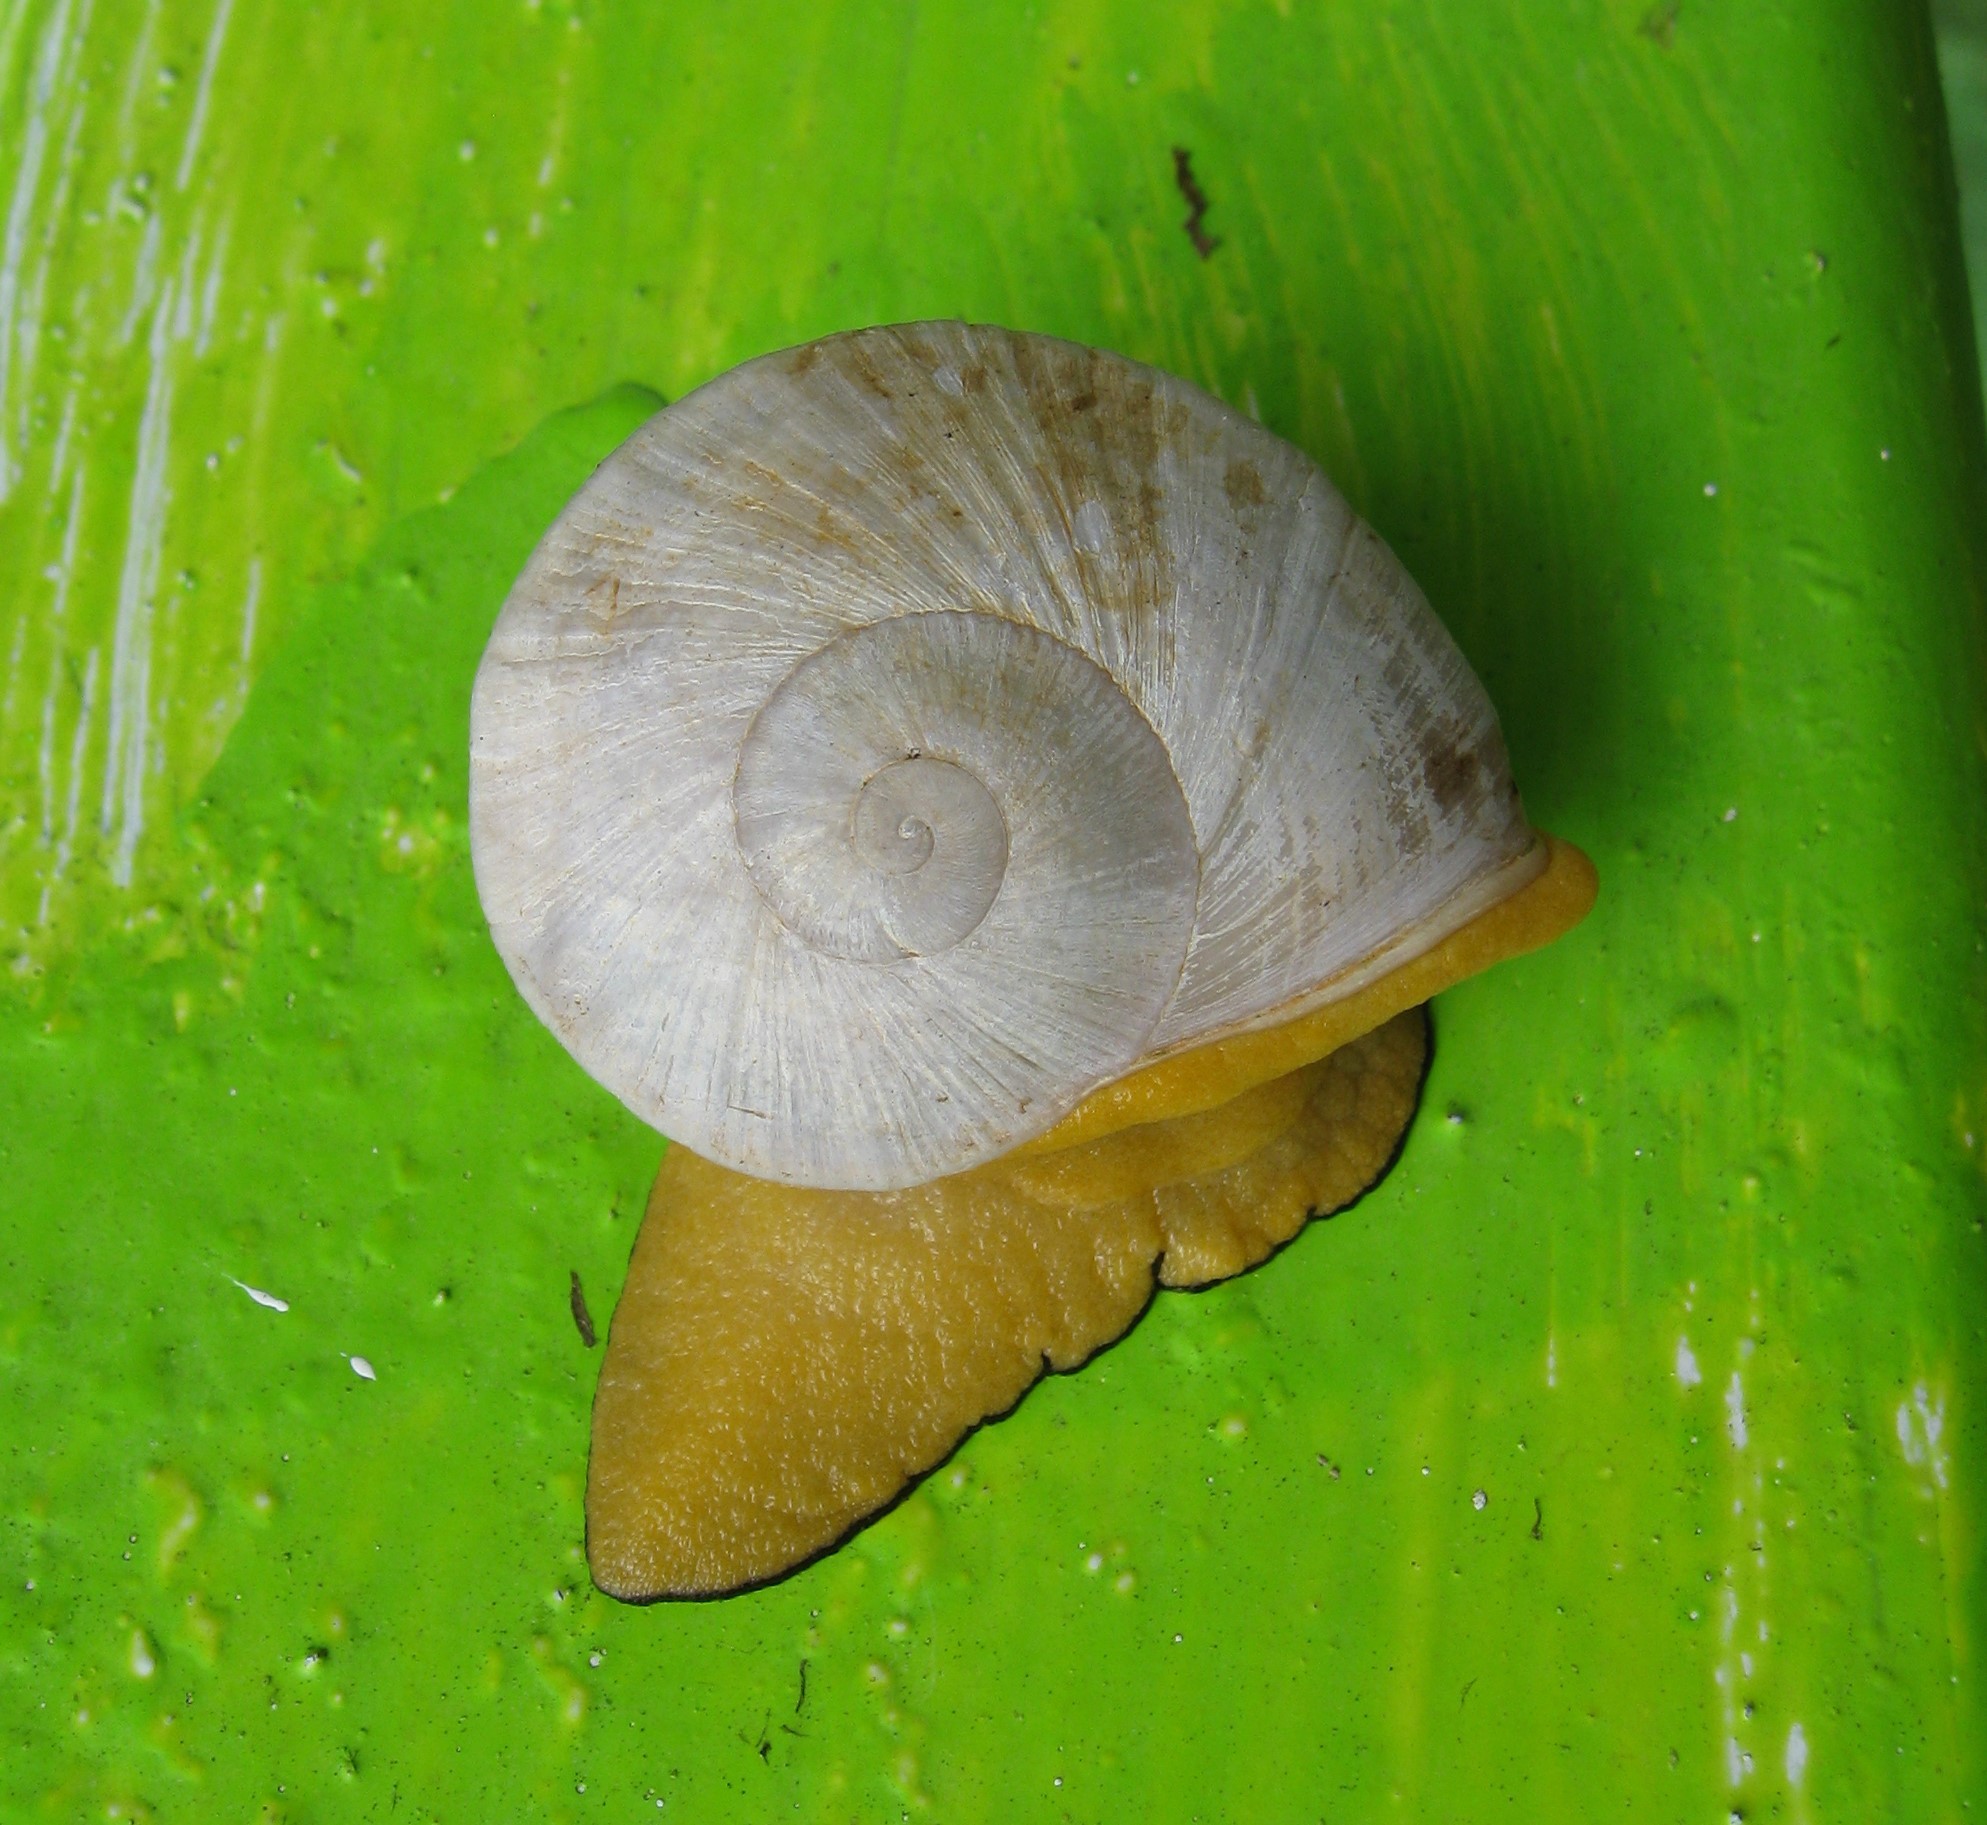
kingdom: Animalia
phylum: Mollusca
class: Gastropoda
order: Stylommatophora
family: Sagdidae
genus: Parthena
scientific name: Parthena acutangula
